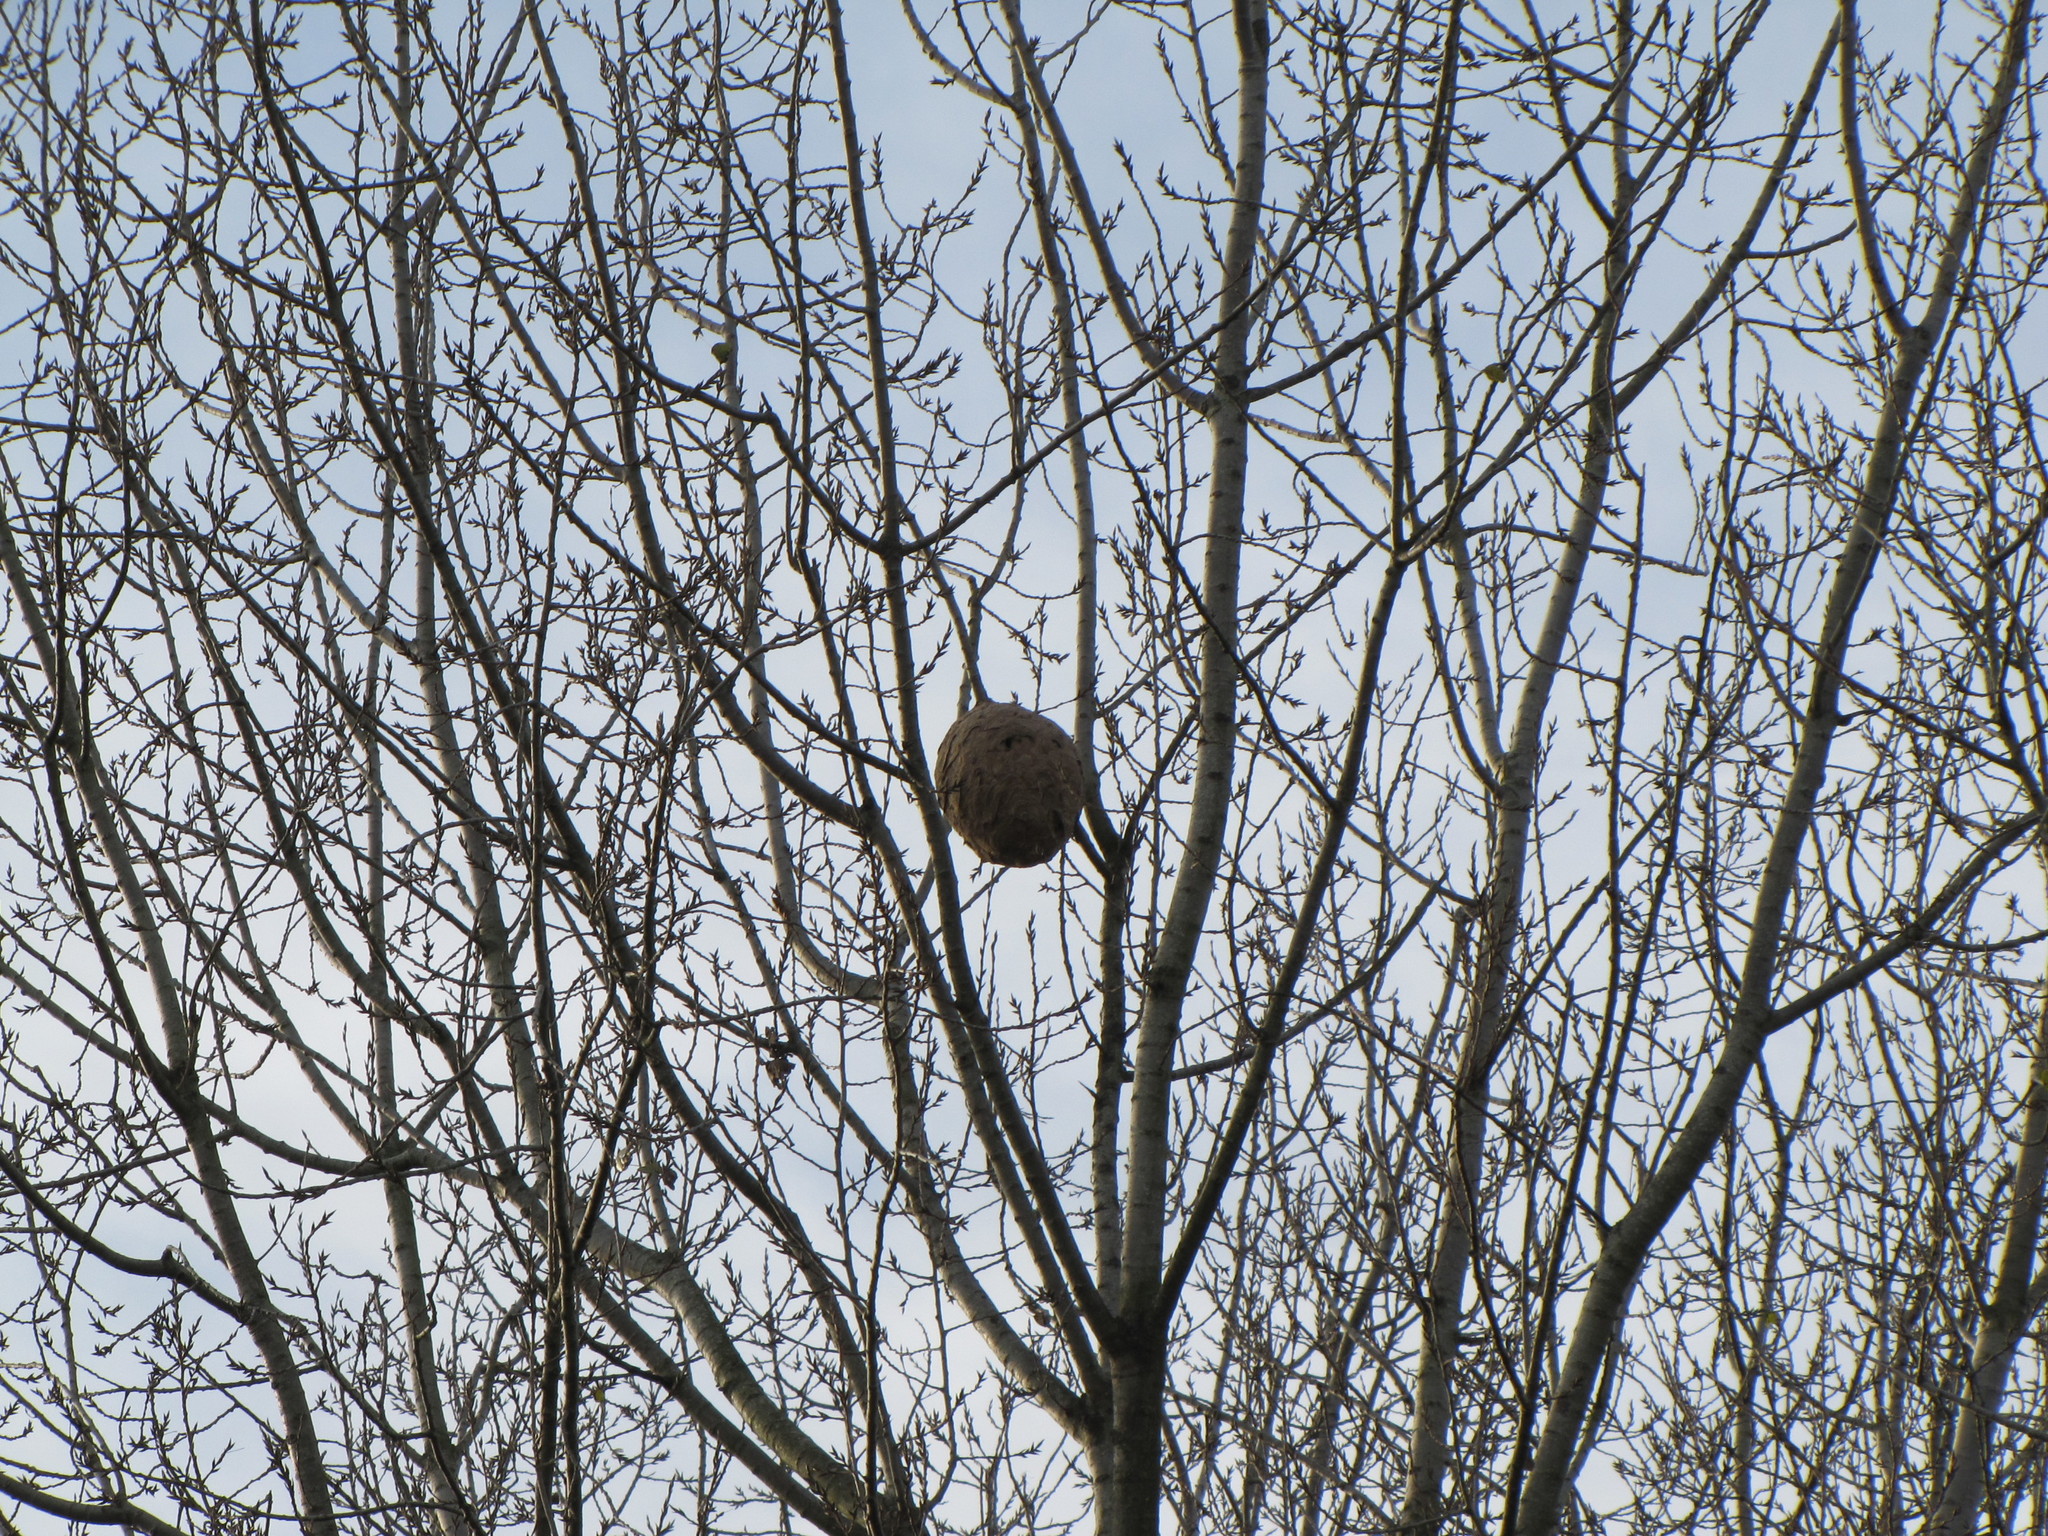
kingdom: Animalia
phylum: Arthropoda
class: Insecta
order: Hymenoptera
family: Vespidae
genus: Vespa
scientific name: Vespa velutina
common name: Asian hornet
